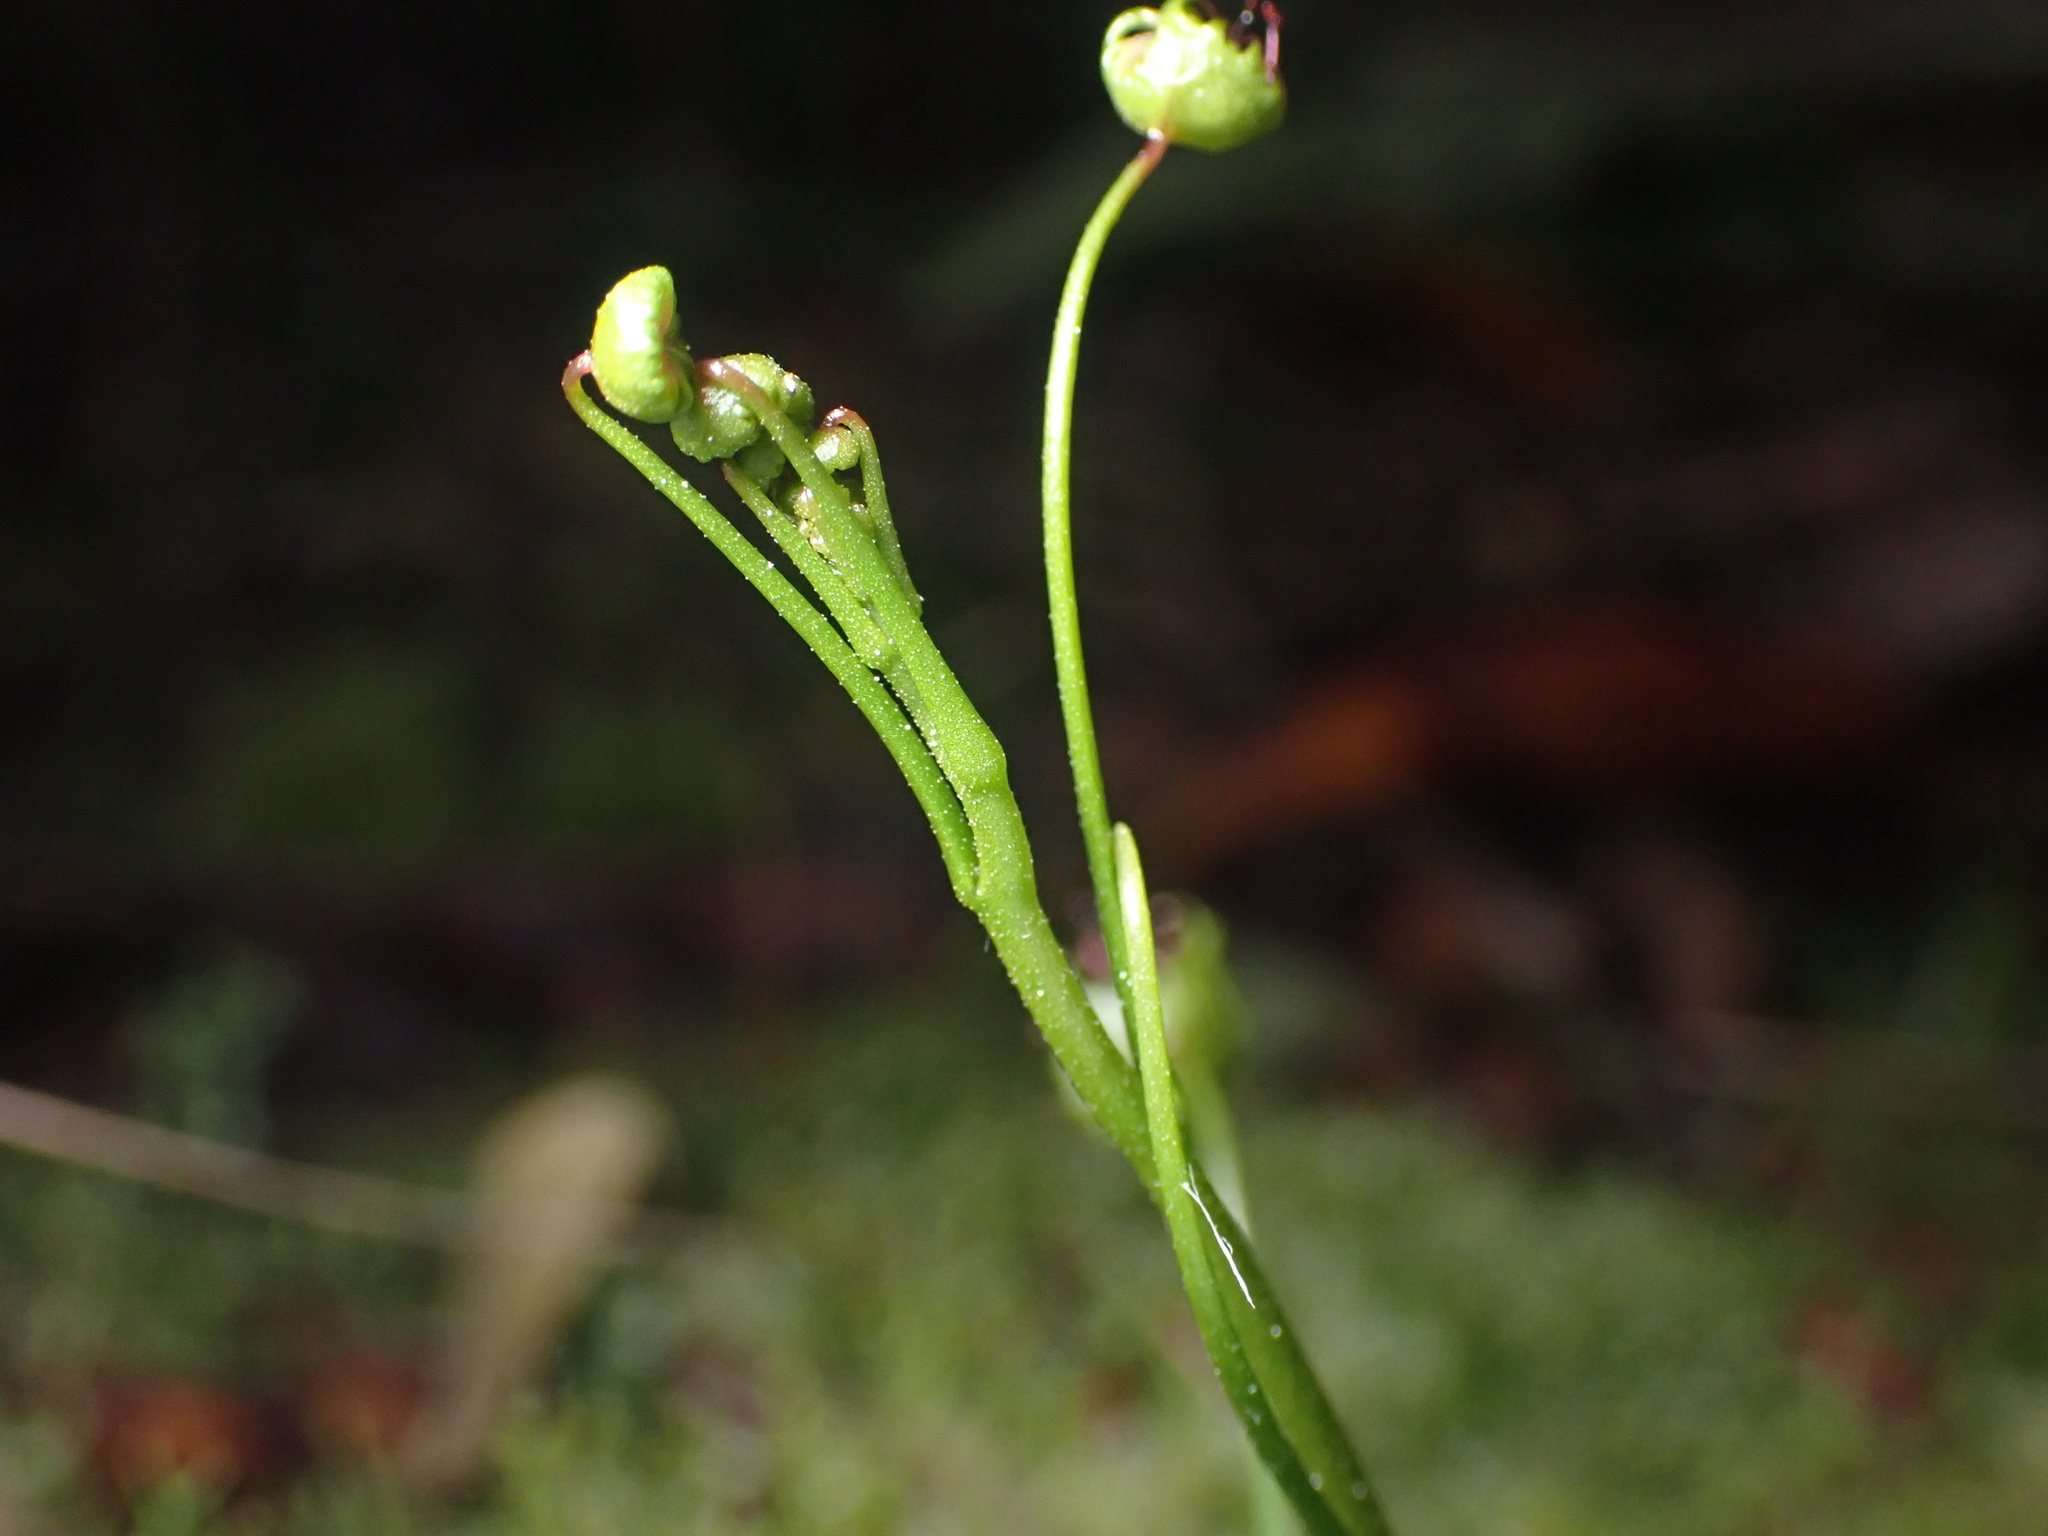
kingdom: Plantae
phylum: Tracheophyta
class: Magnoliopsida
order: Caryophyllales
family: Droseraceae
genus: Drosera
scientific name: Drosera peltata
